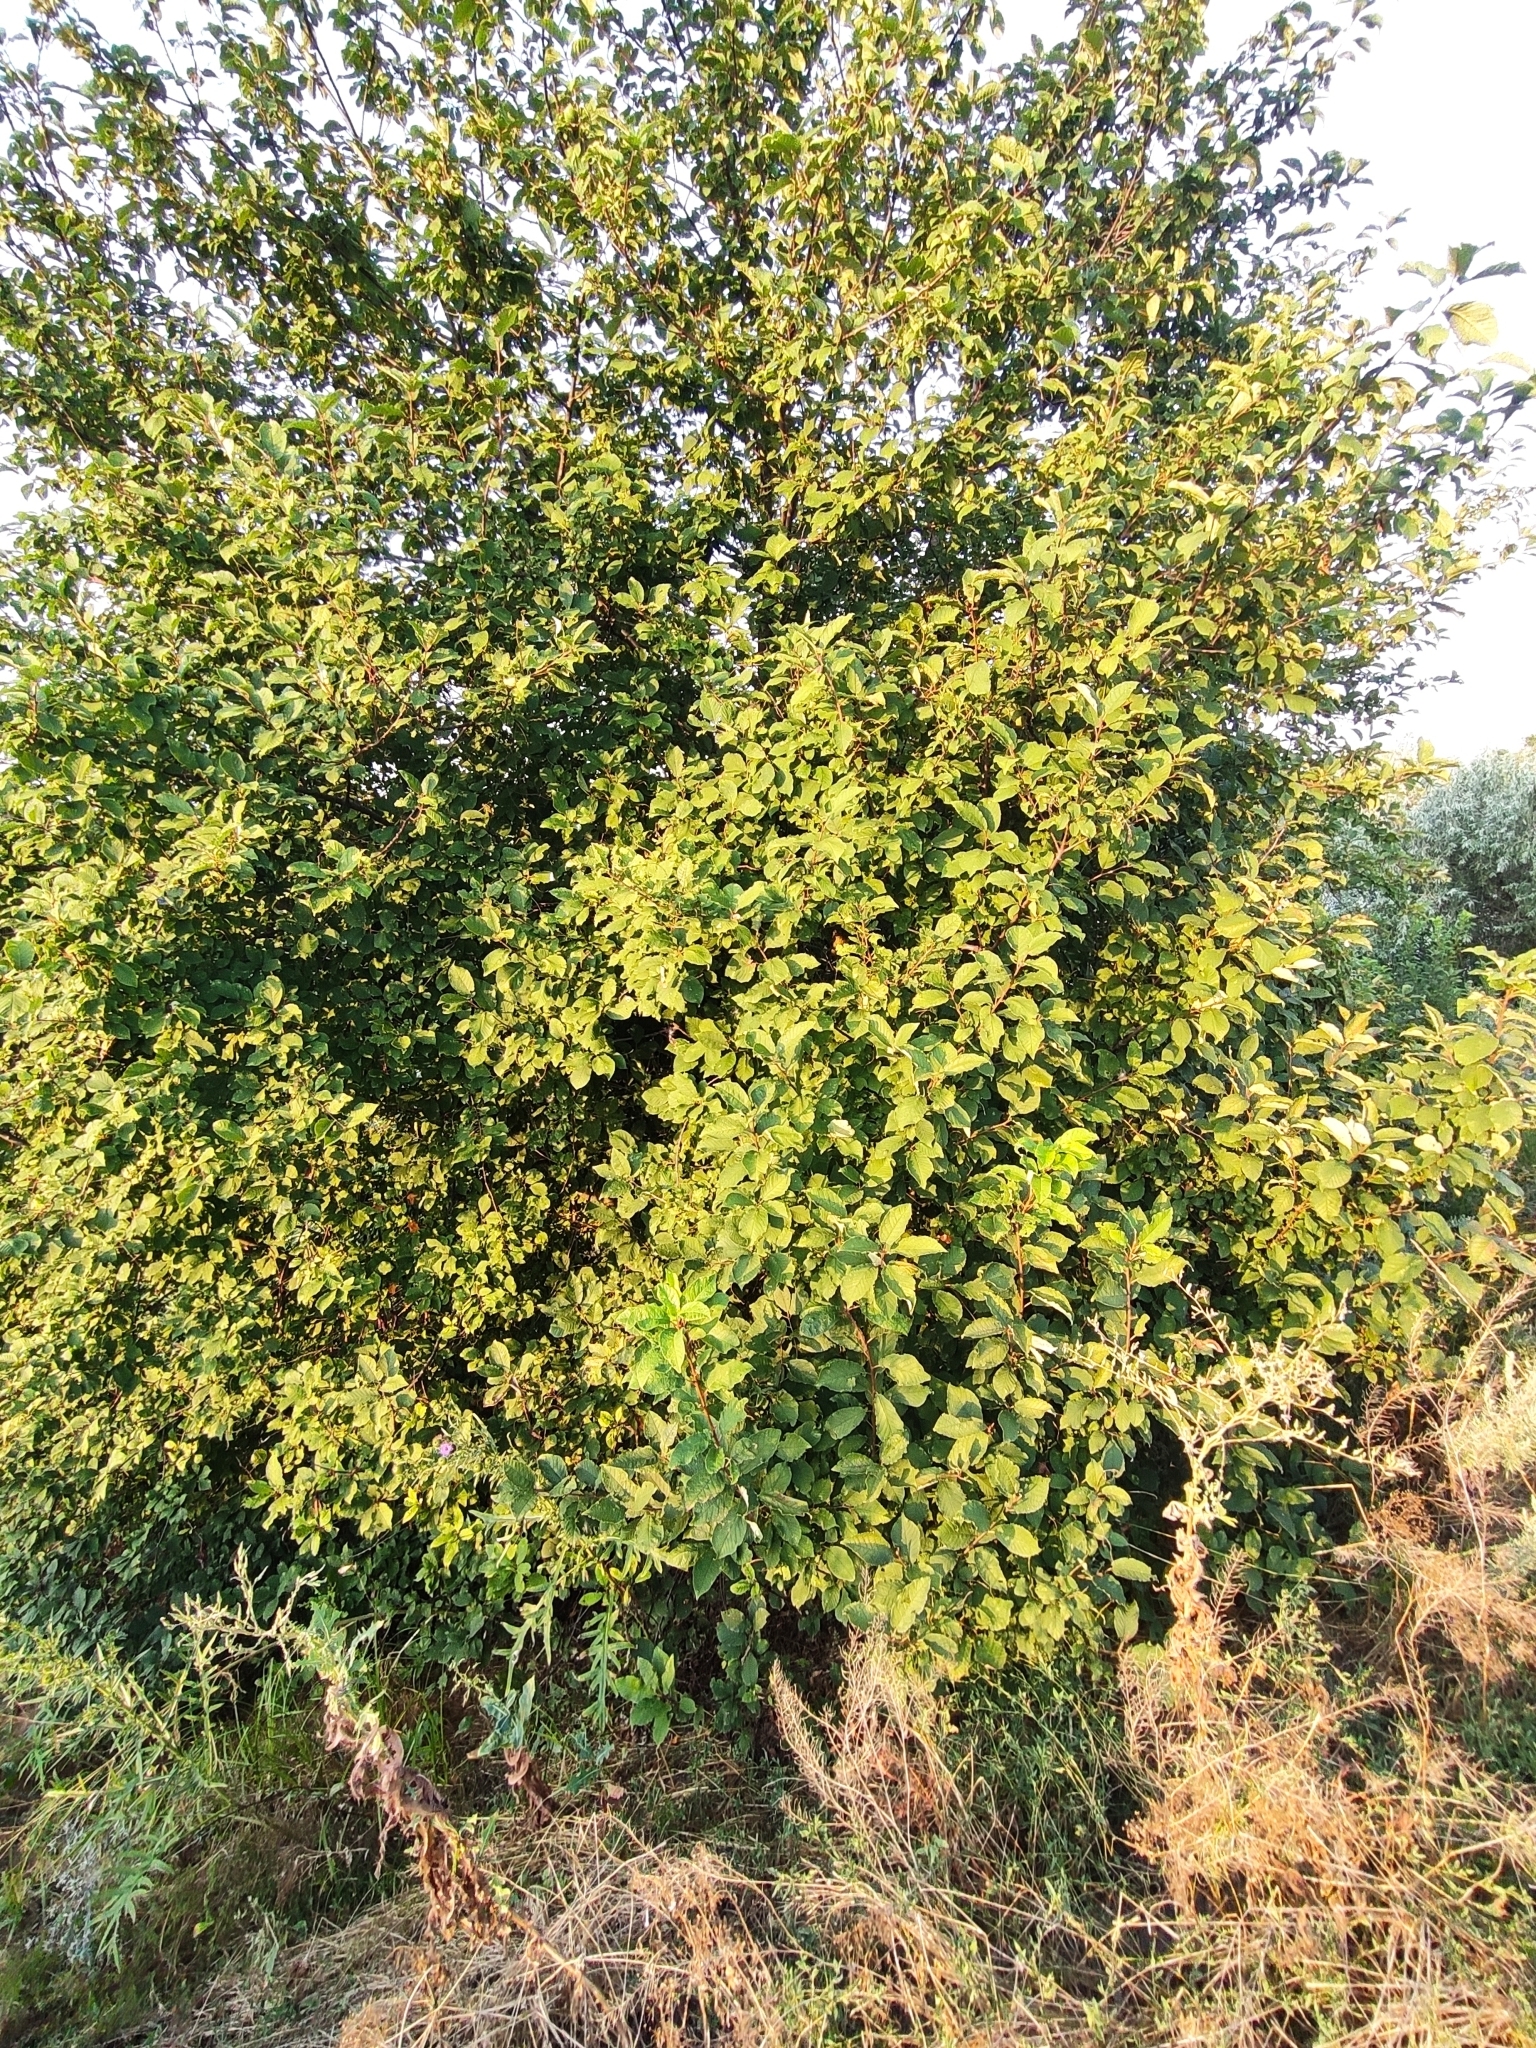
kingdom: Plantae
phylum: Tracheophyta
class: Magnoliopsida
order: Rosales
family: Rosaceae
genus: Prunus
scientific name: Prunus padus
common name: Bird cherry
